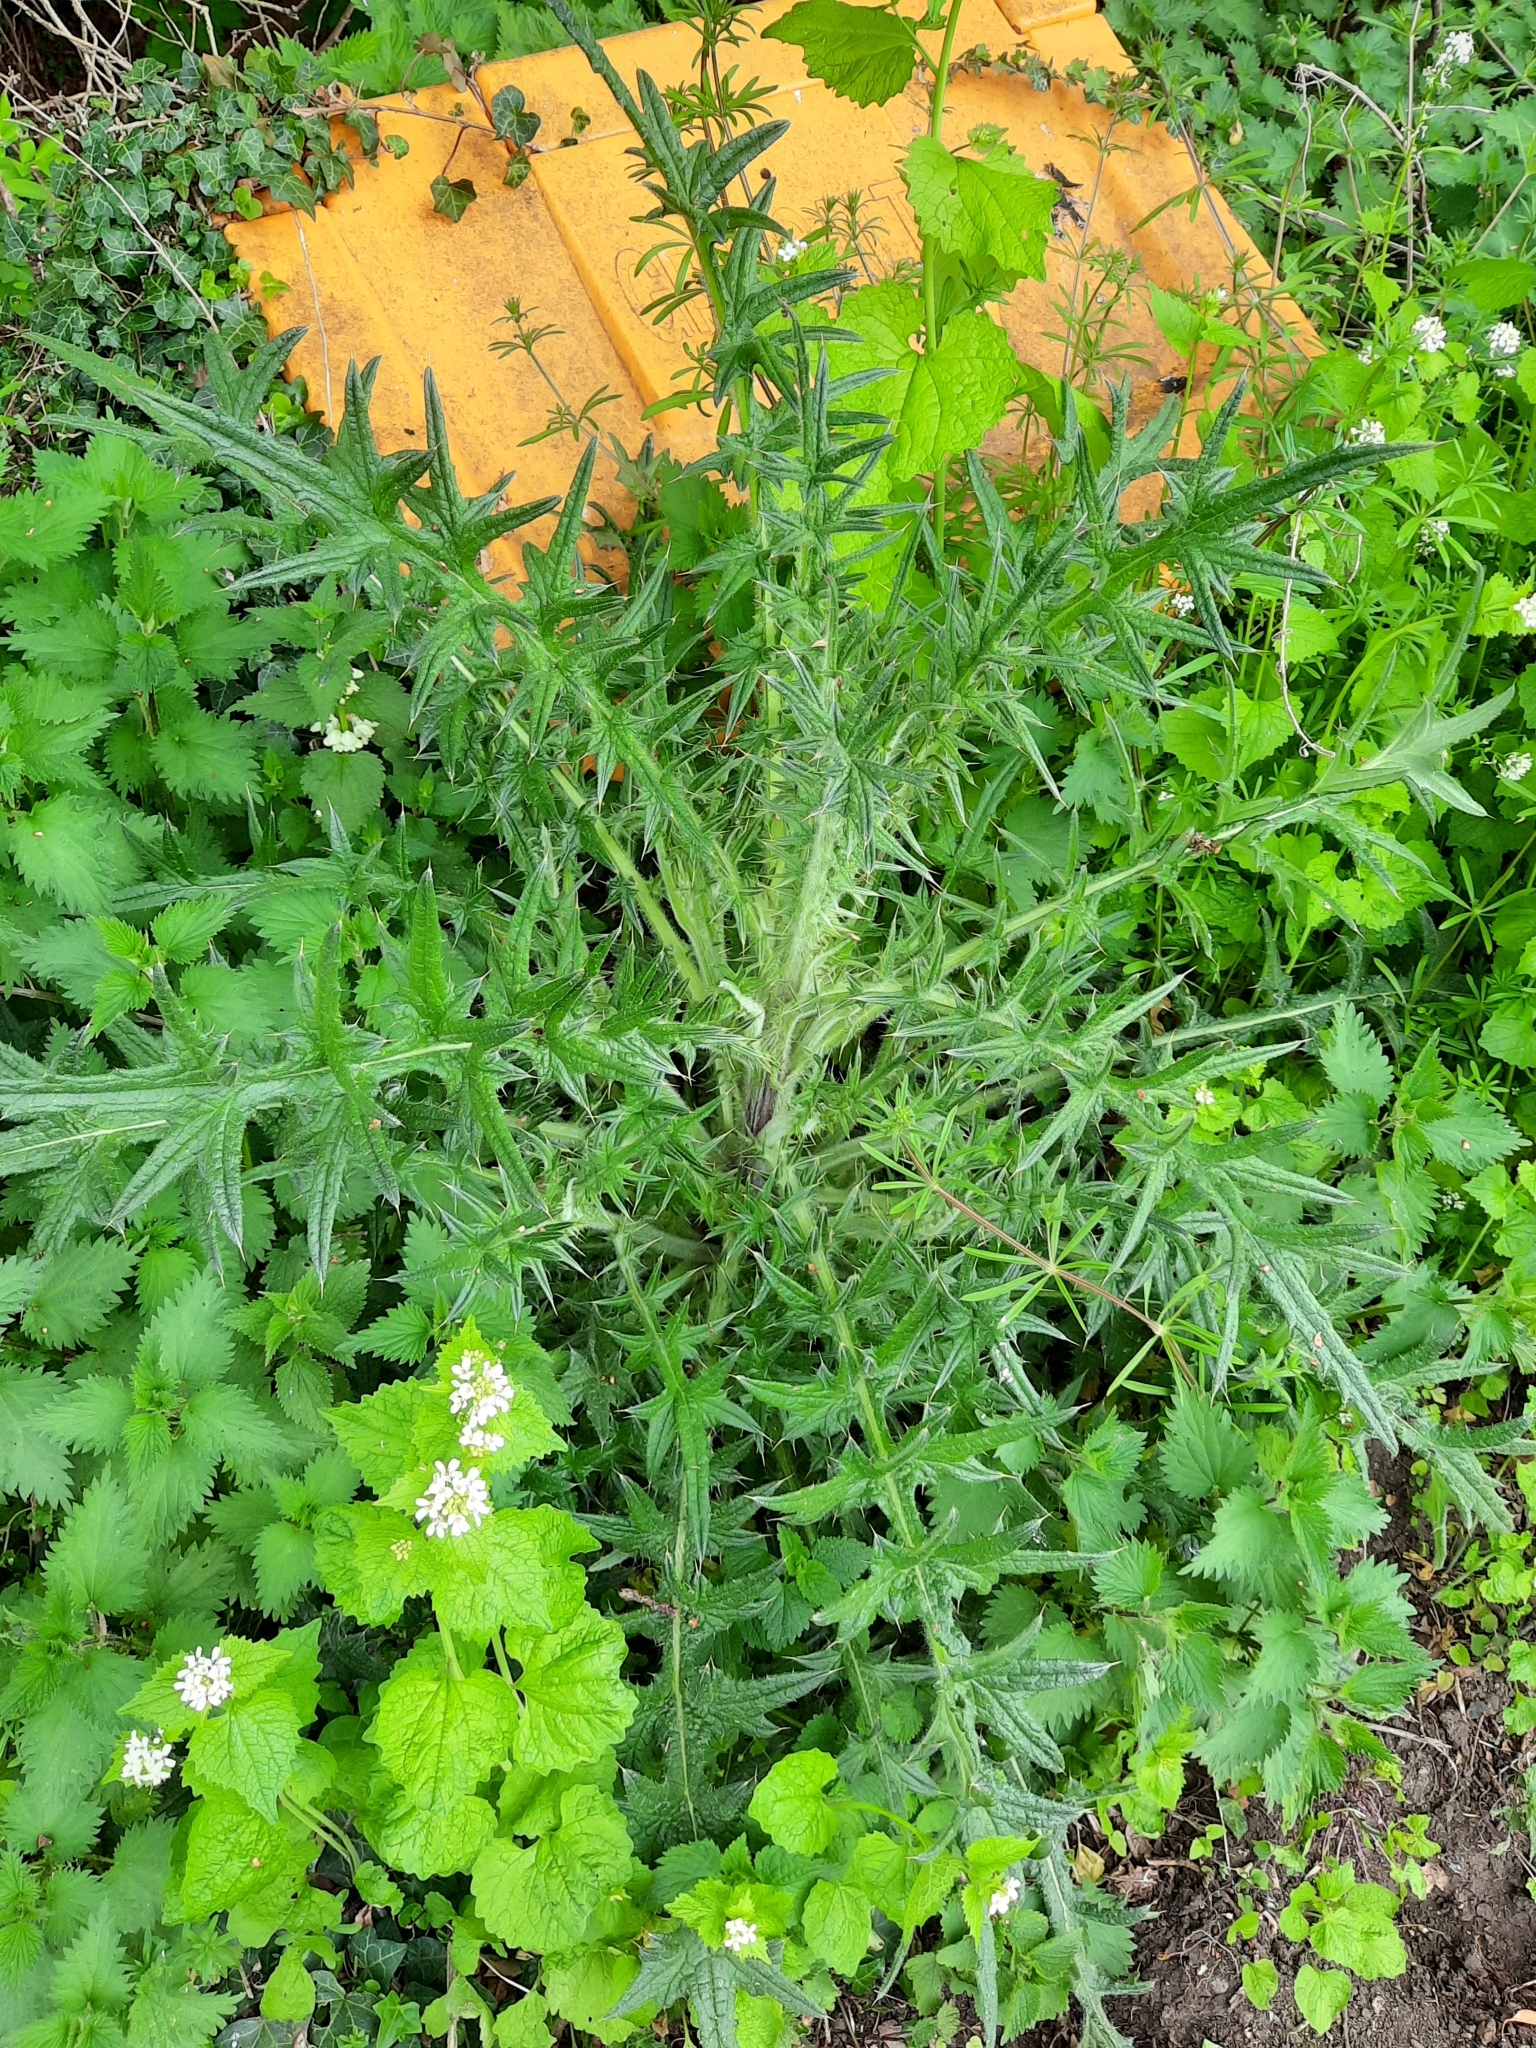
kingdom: Plantae
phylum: Tracheophyta
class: Magnoliopsida
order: Asterales
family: Asteraceae
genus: Cirsium
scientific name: Cirsium vulgare
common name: Bull thistle
